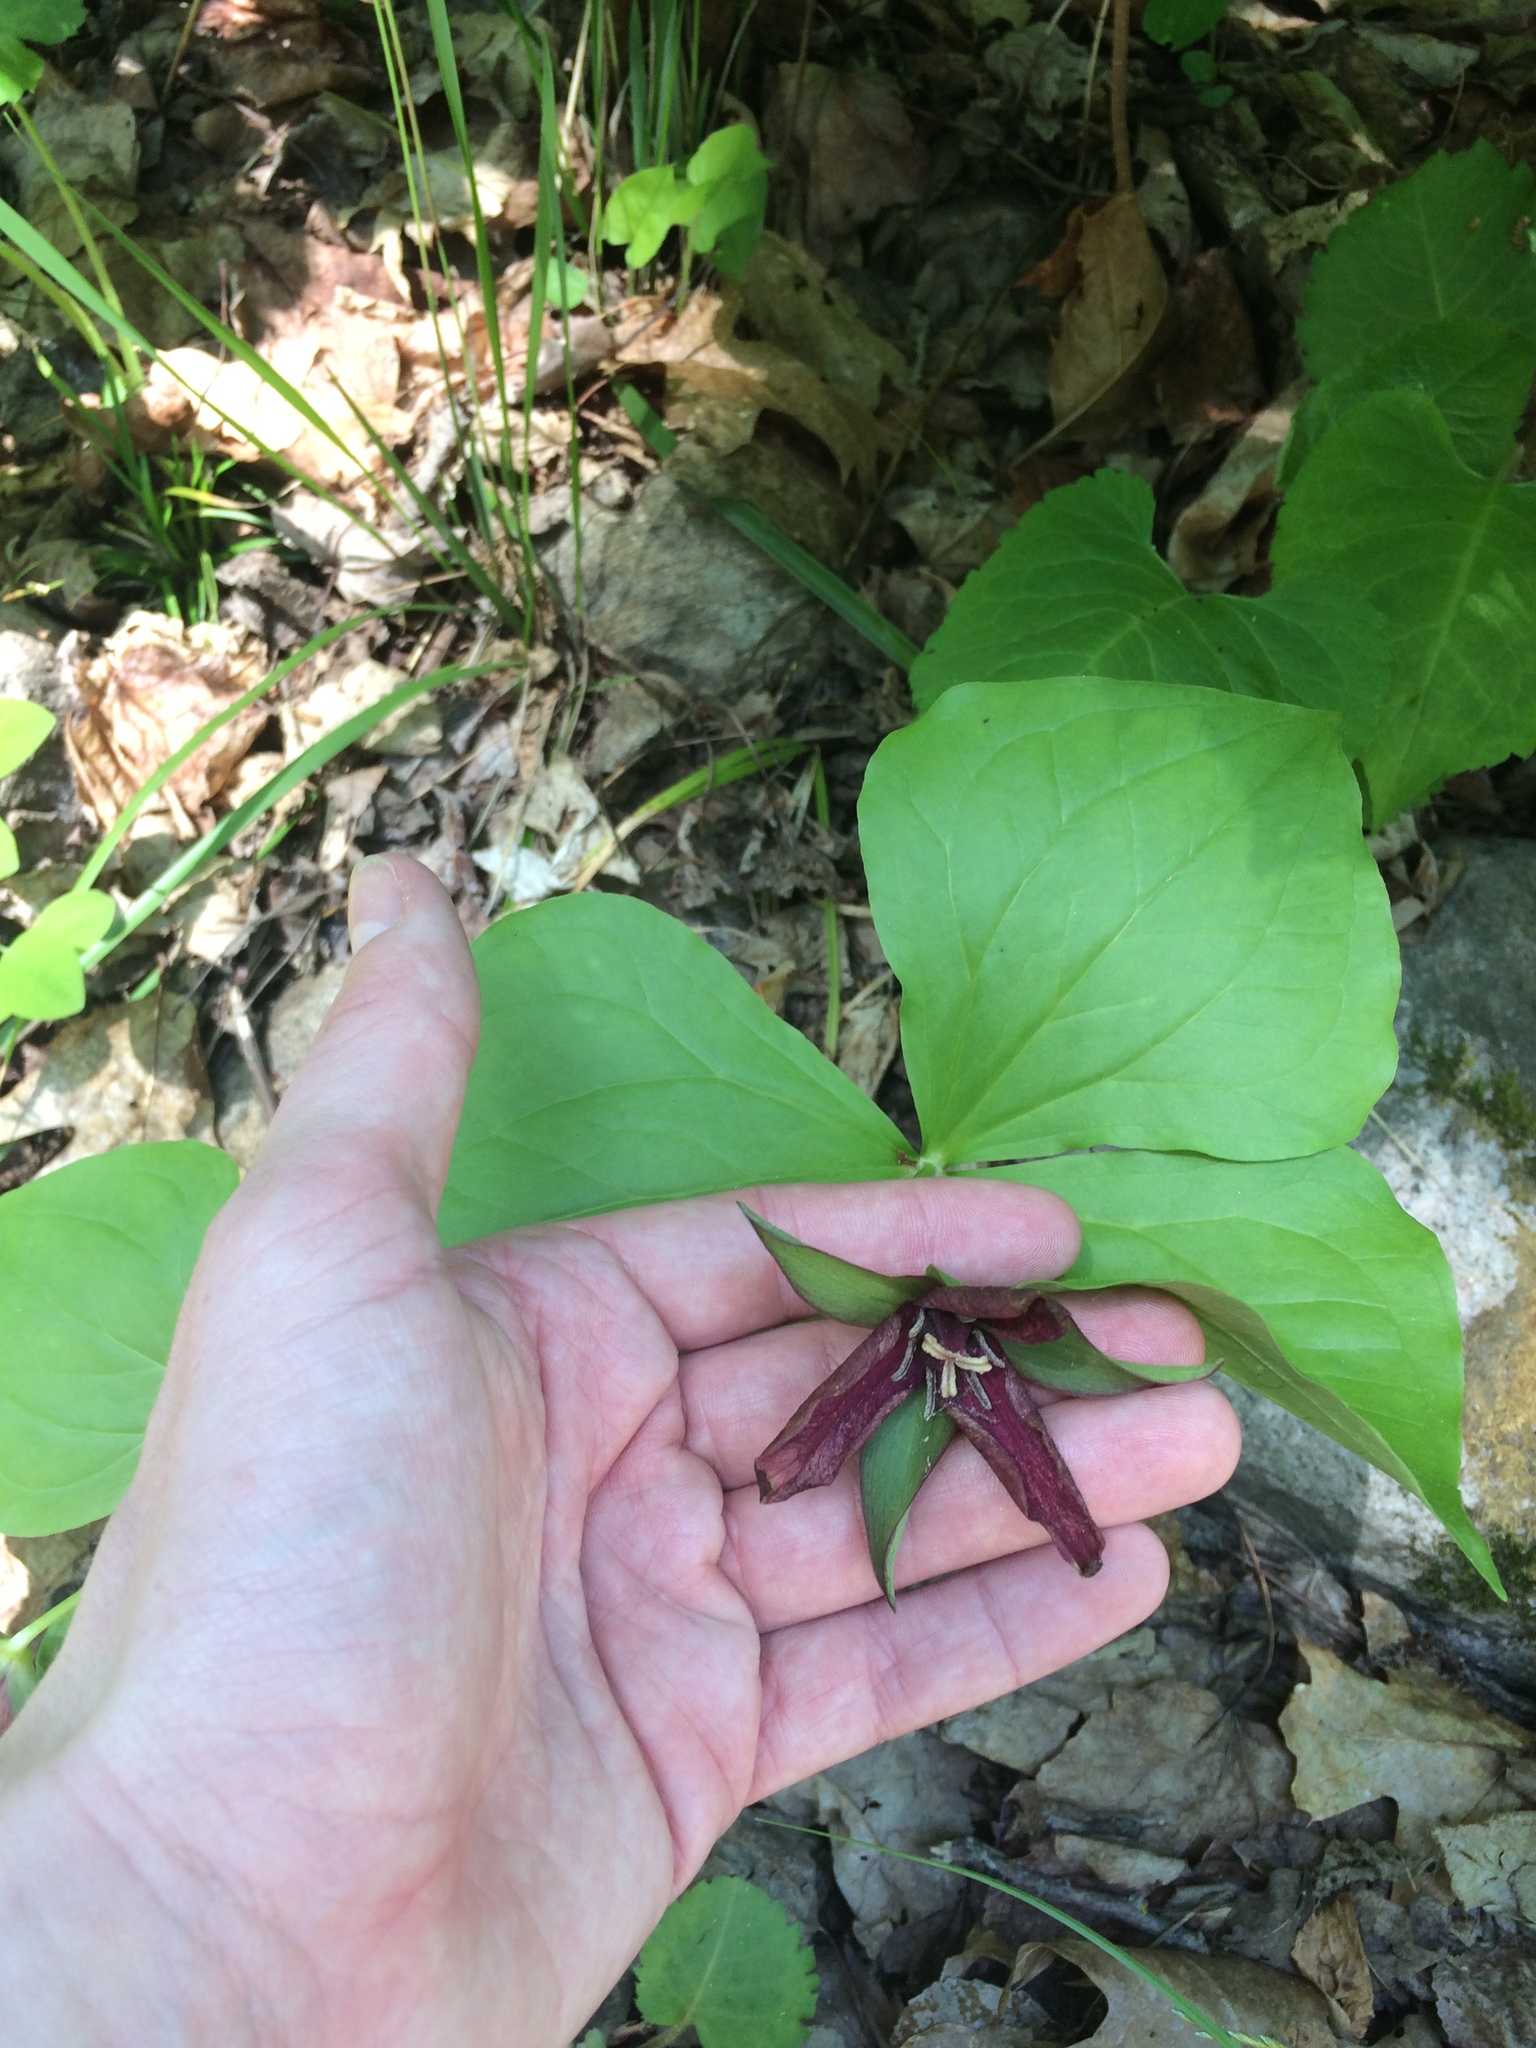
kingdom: Plantae
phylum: Tracheophyta
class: Liliopsida
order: Liliales
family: Melanthiaceae
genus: Trillium
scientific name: Trillium erectum
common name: Purple trillium
